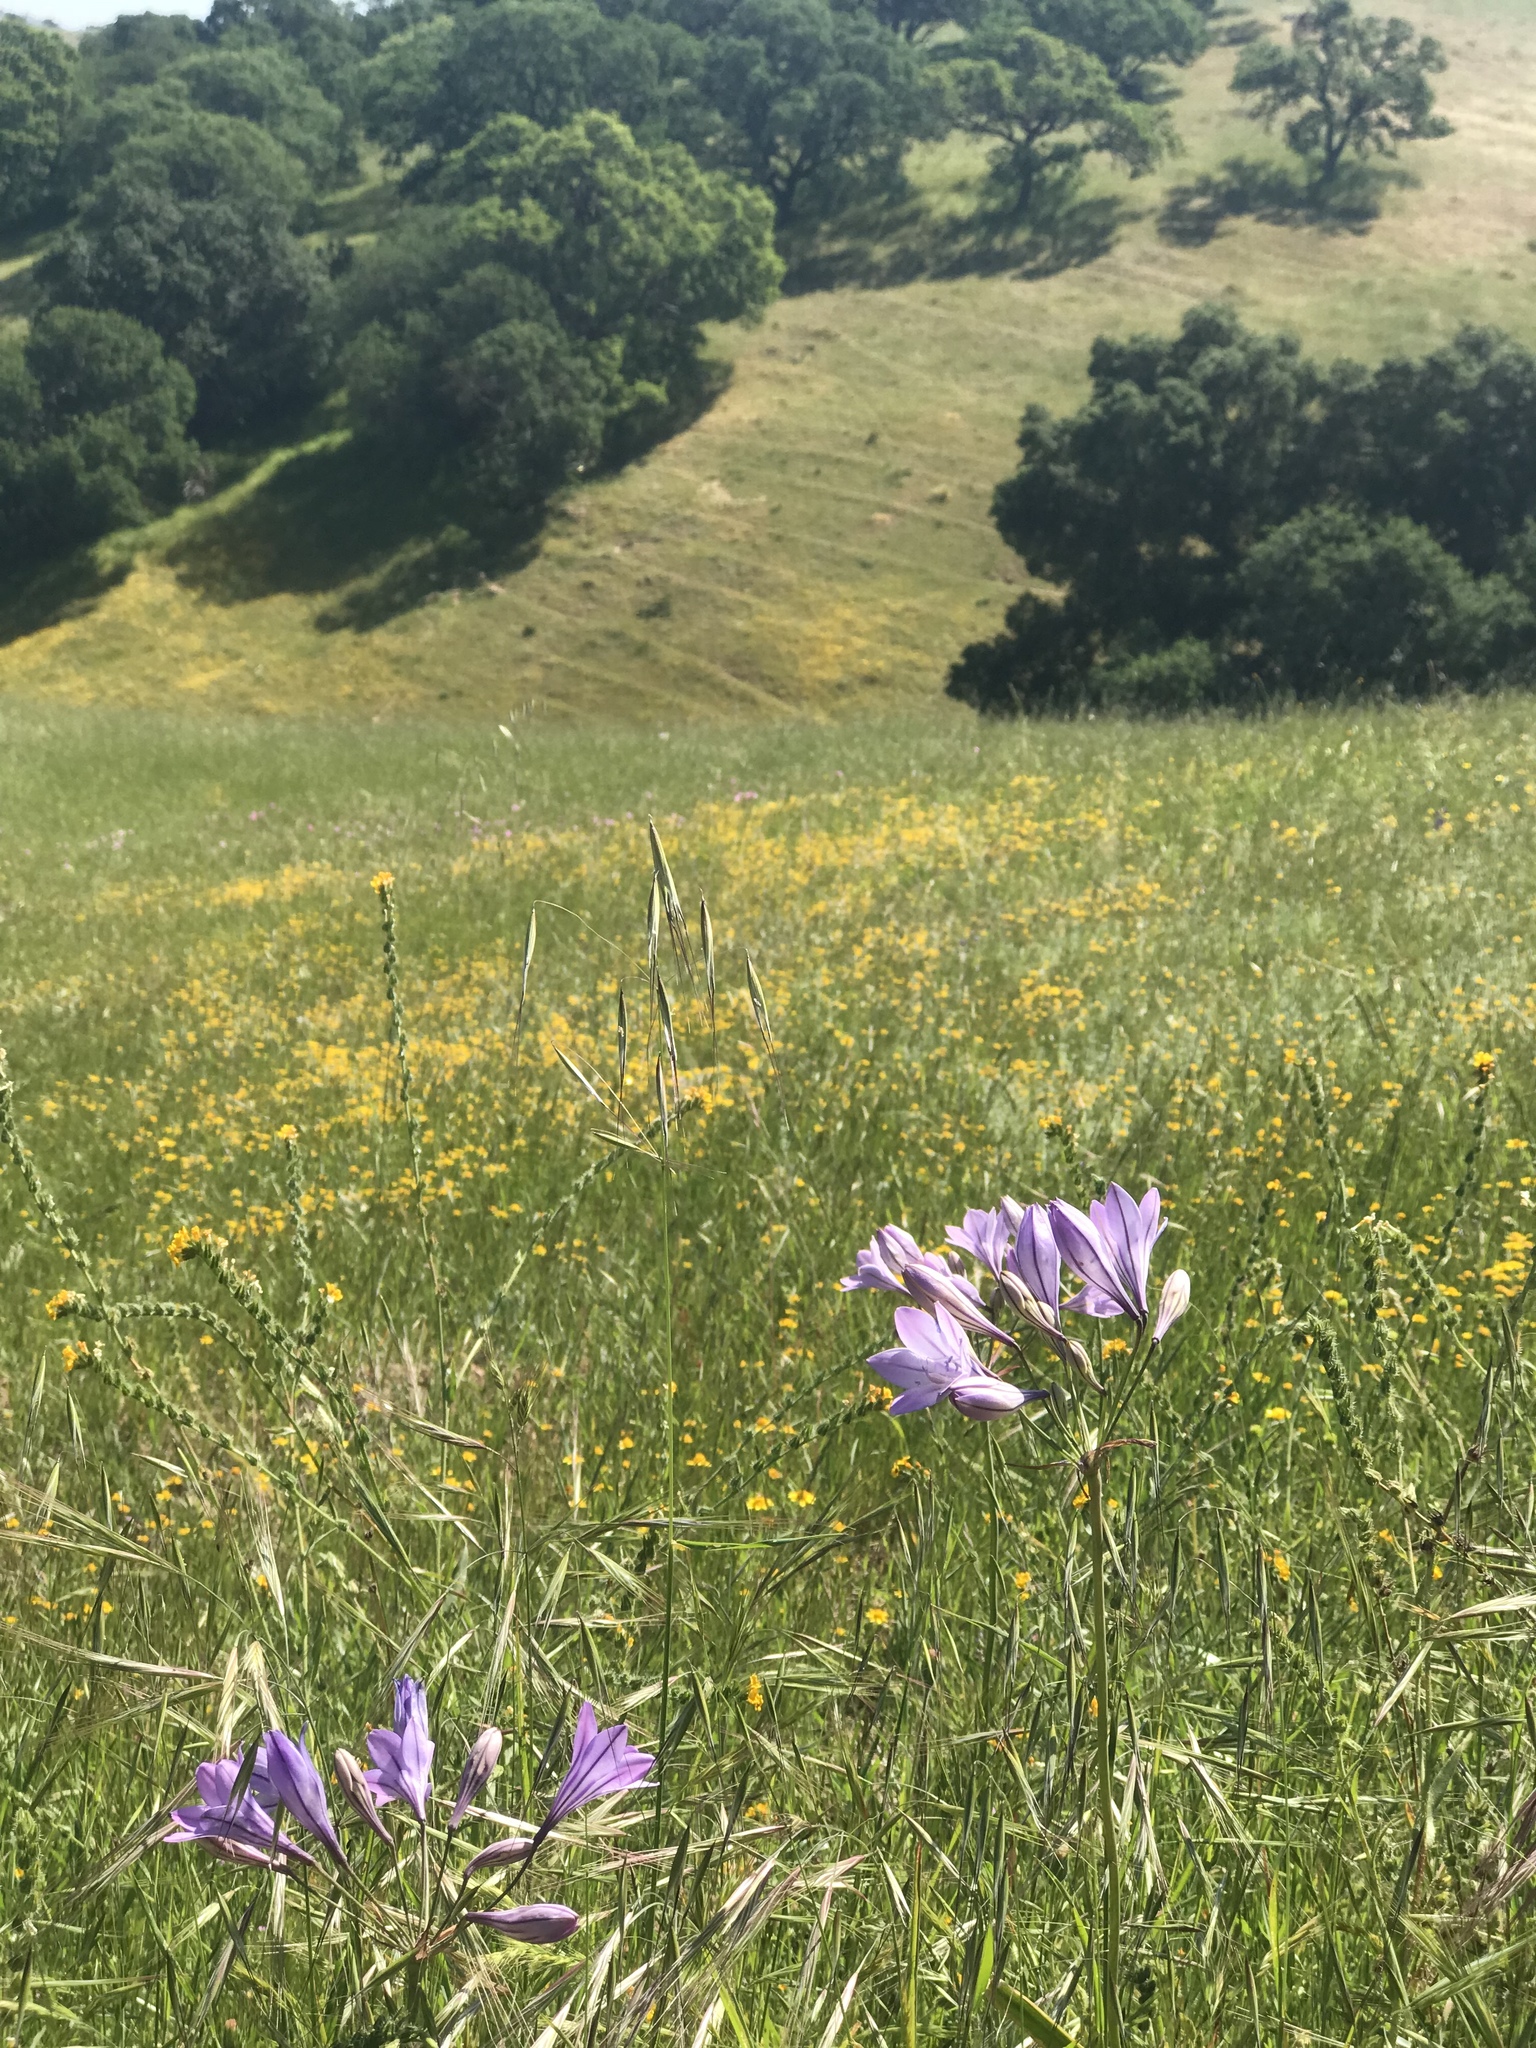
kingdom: Plantae
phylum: Tracheophyta
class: Liliopsida
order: Asparagales
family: Asparagaceae
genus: Triteleia
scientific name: Triteleia laxa
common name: Triplet-lily
